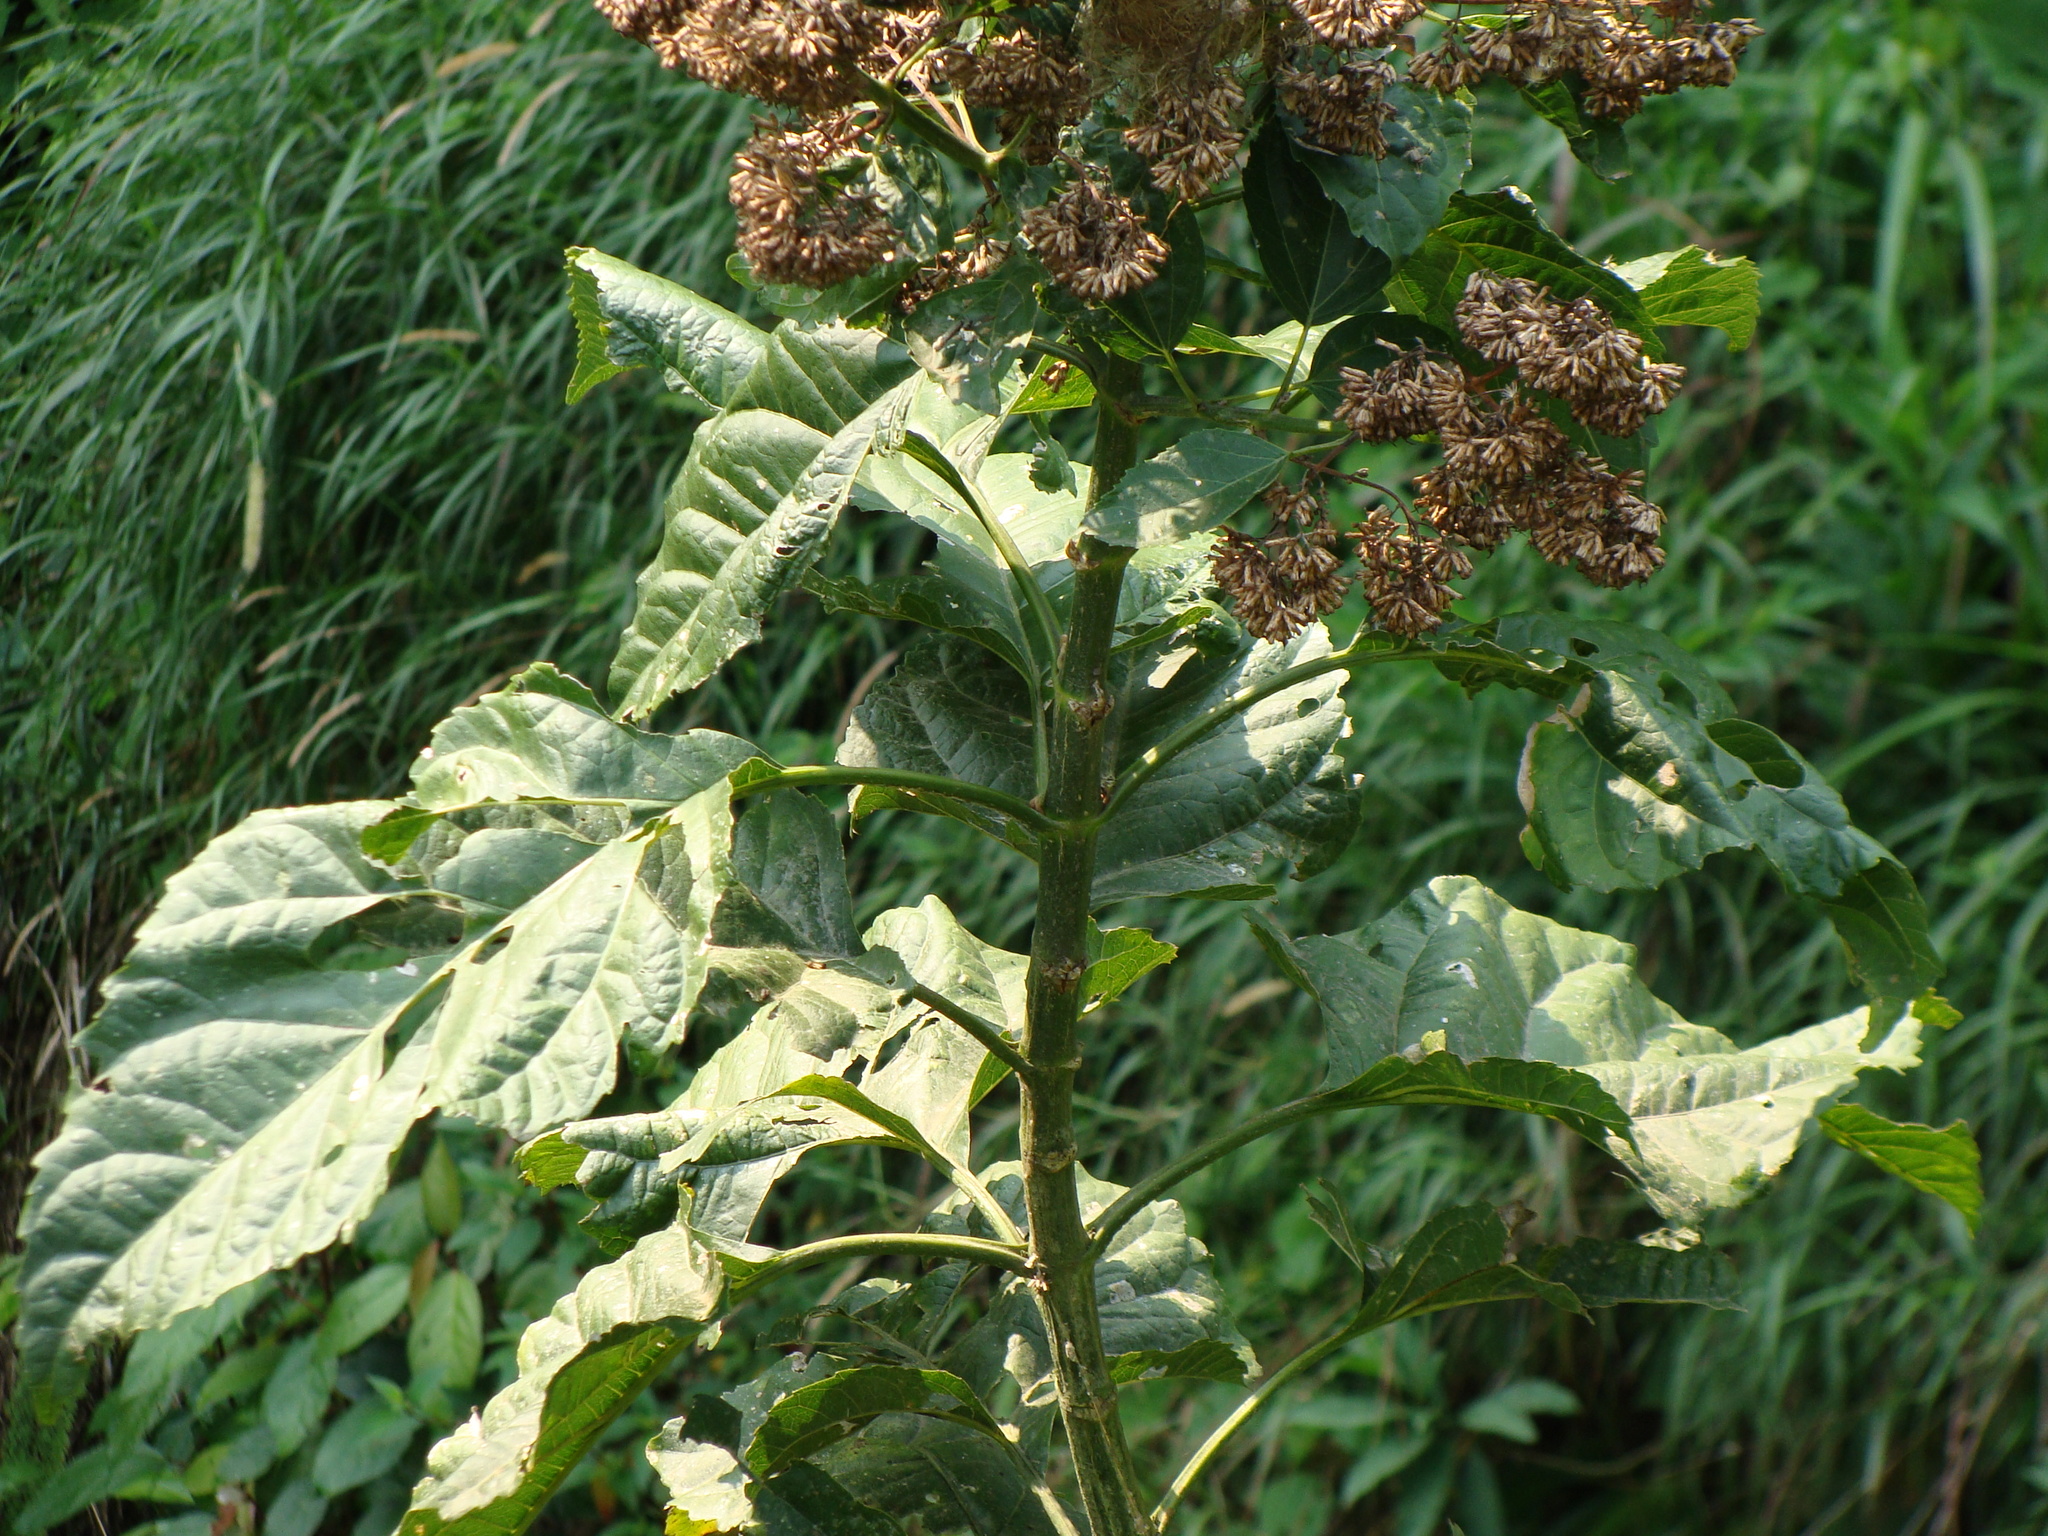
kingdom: Plantae
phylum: Tracheophyta
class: Magnoliopsida
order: Asterales
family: Asteraceae
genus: Critonia
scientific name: Critonia morifolia
